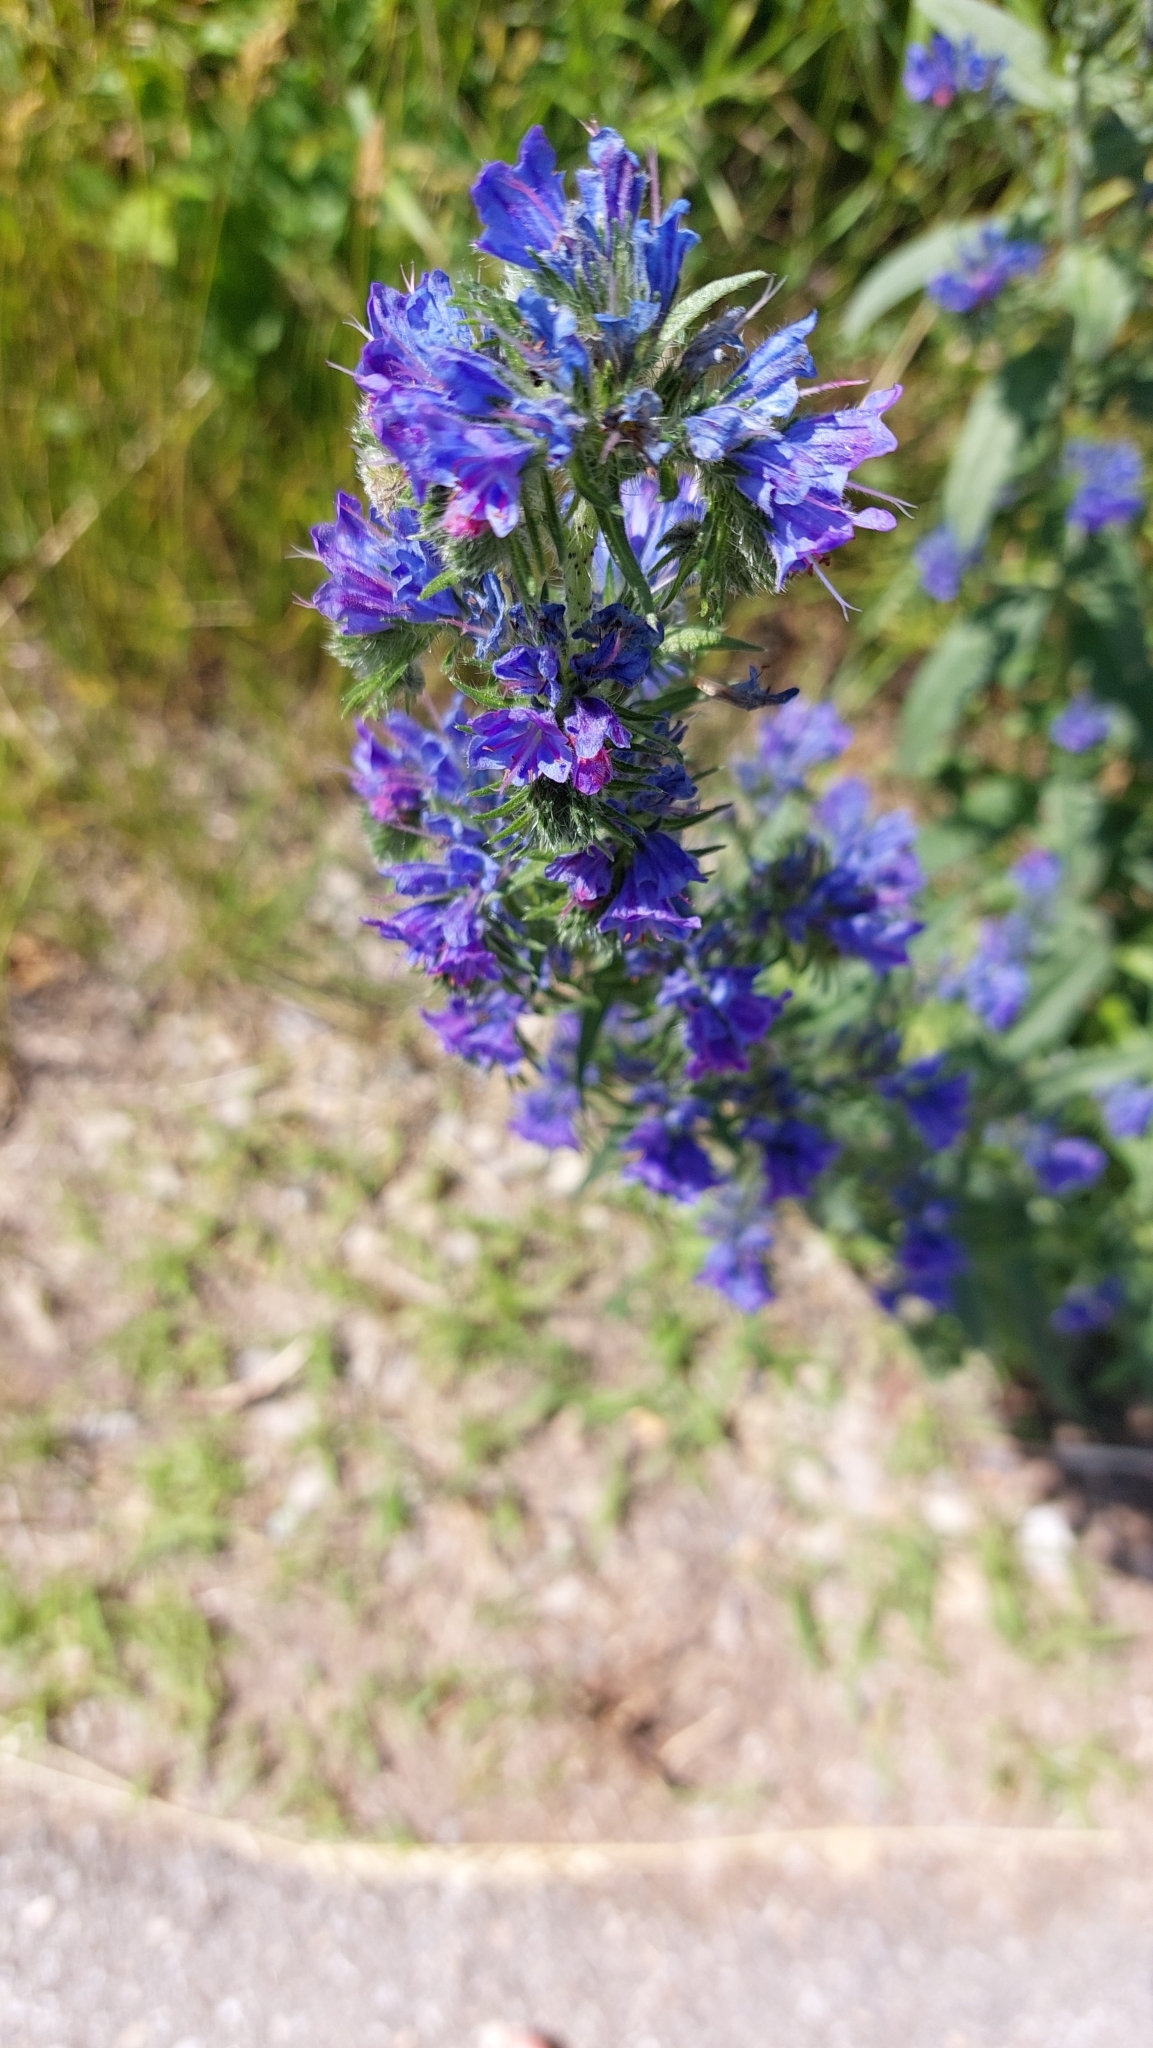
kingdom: Plantae
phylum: Tracheophyta
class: Magnoliopsida
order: Boraginales
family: Boraginaceae
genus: Echium
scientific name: Echium vulgare
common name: Common viper's bugloss
